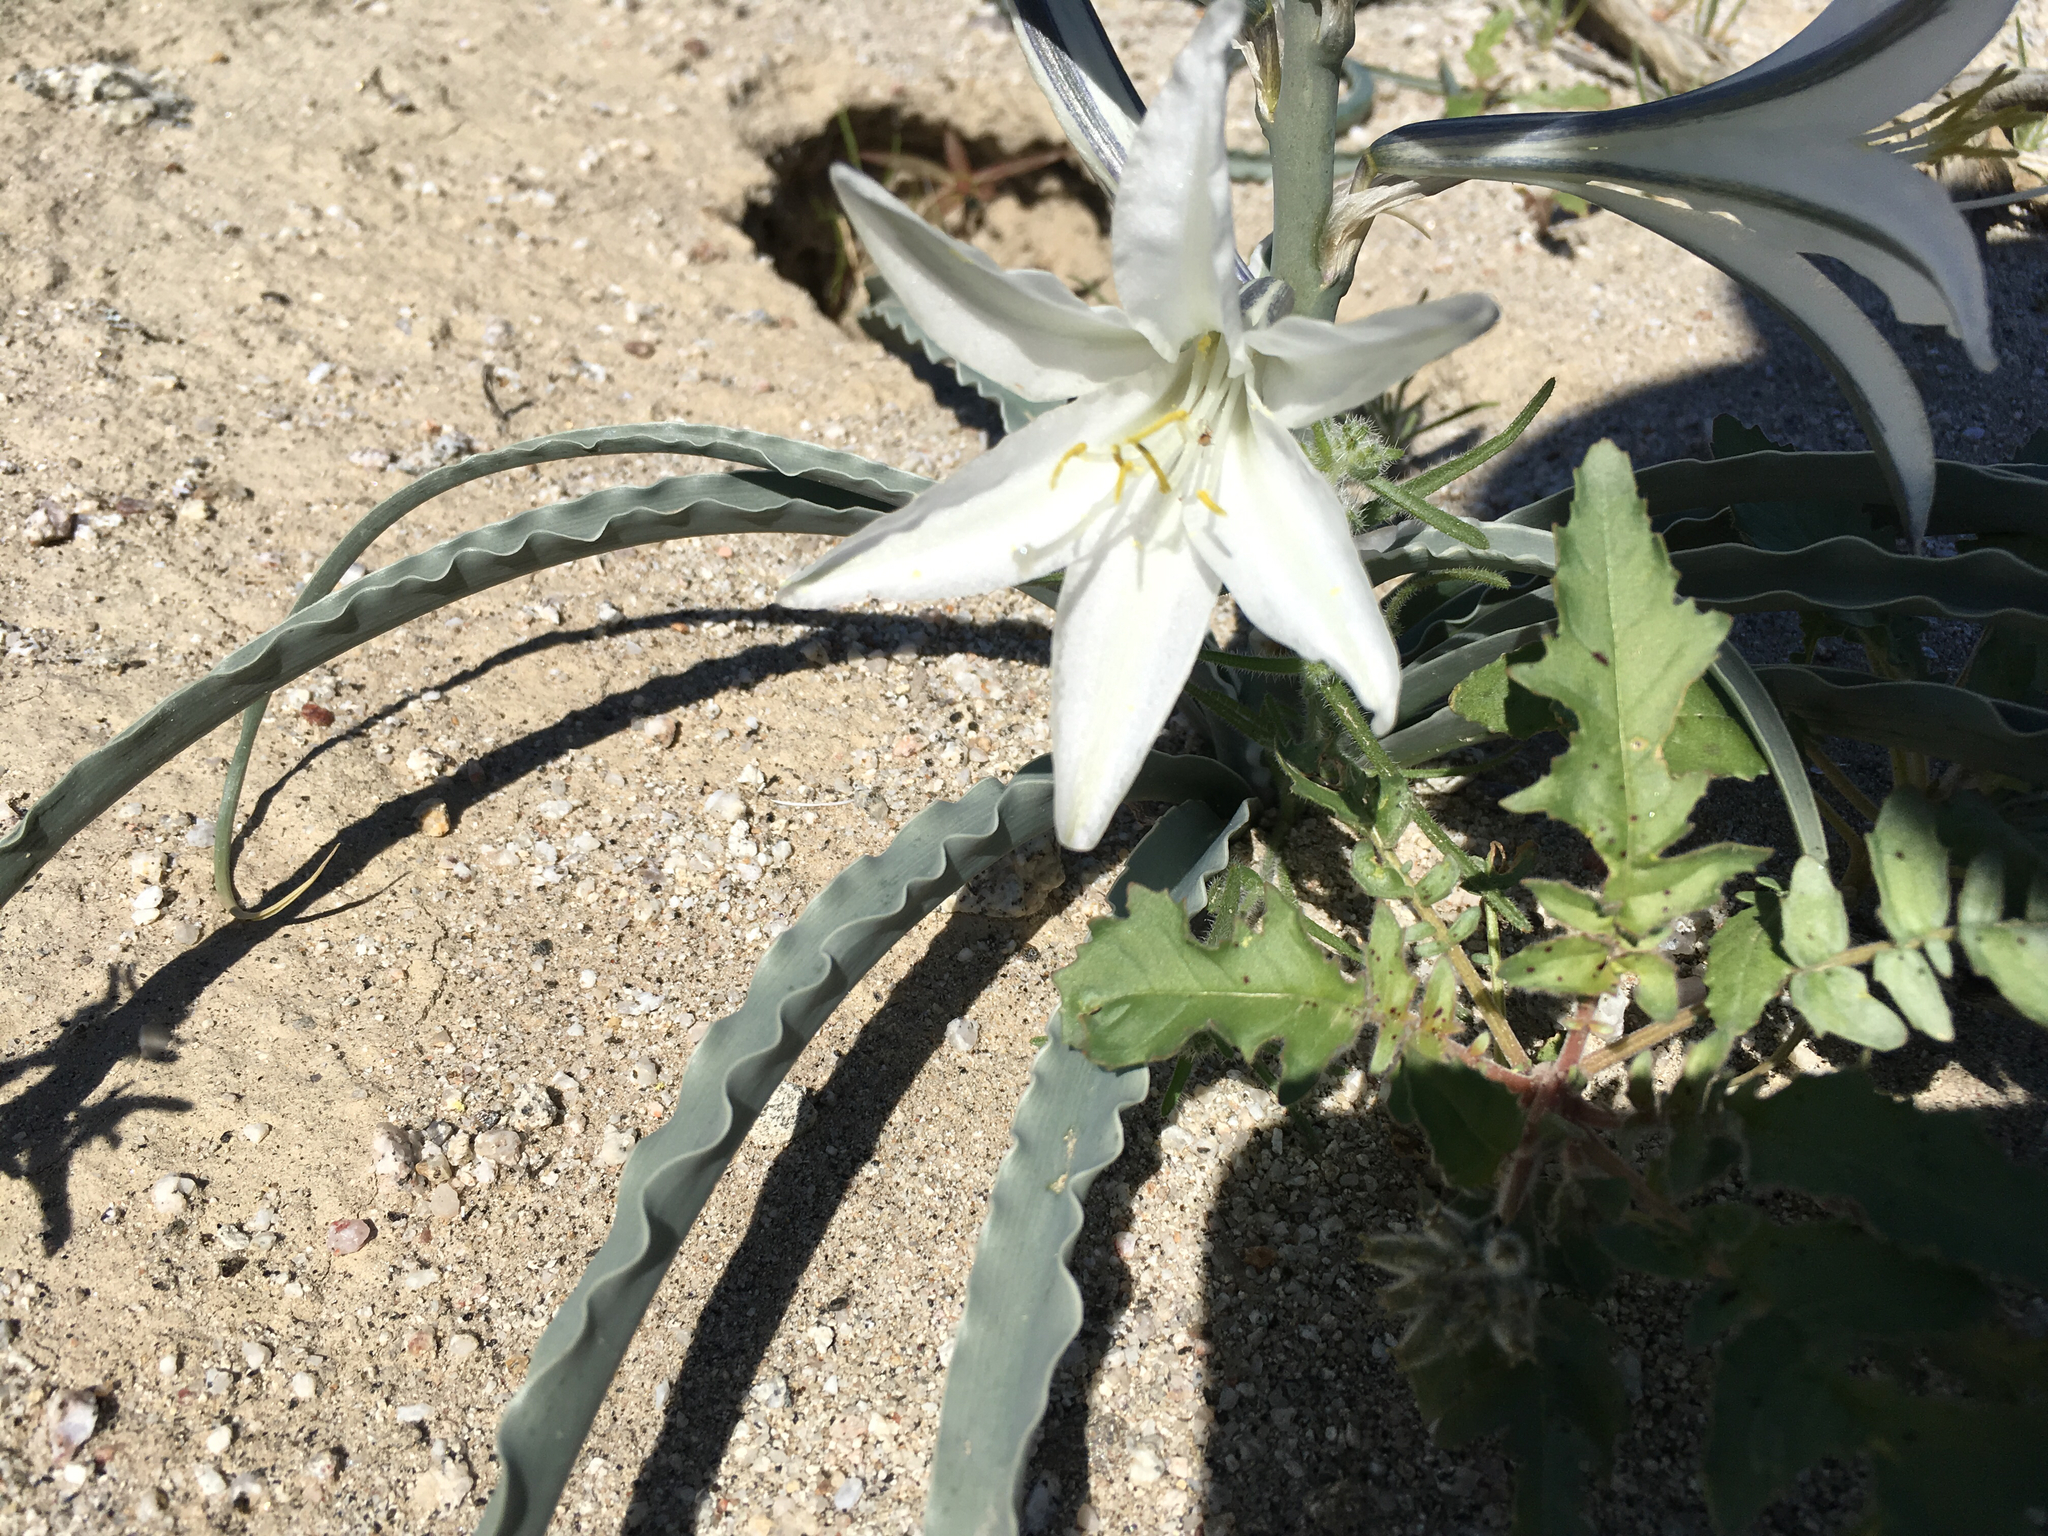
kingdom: Plantae
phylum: Tracheophyta
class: Liliopsida
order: Asparagales
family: Asparagaceae
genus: Hesperocallis
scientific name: Hesperocallis undulata
